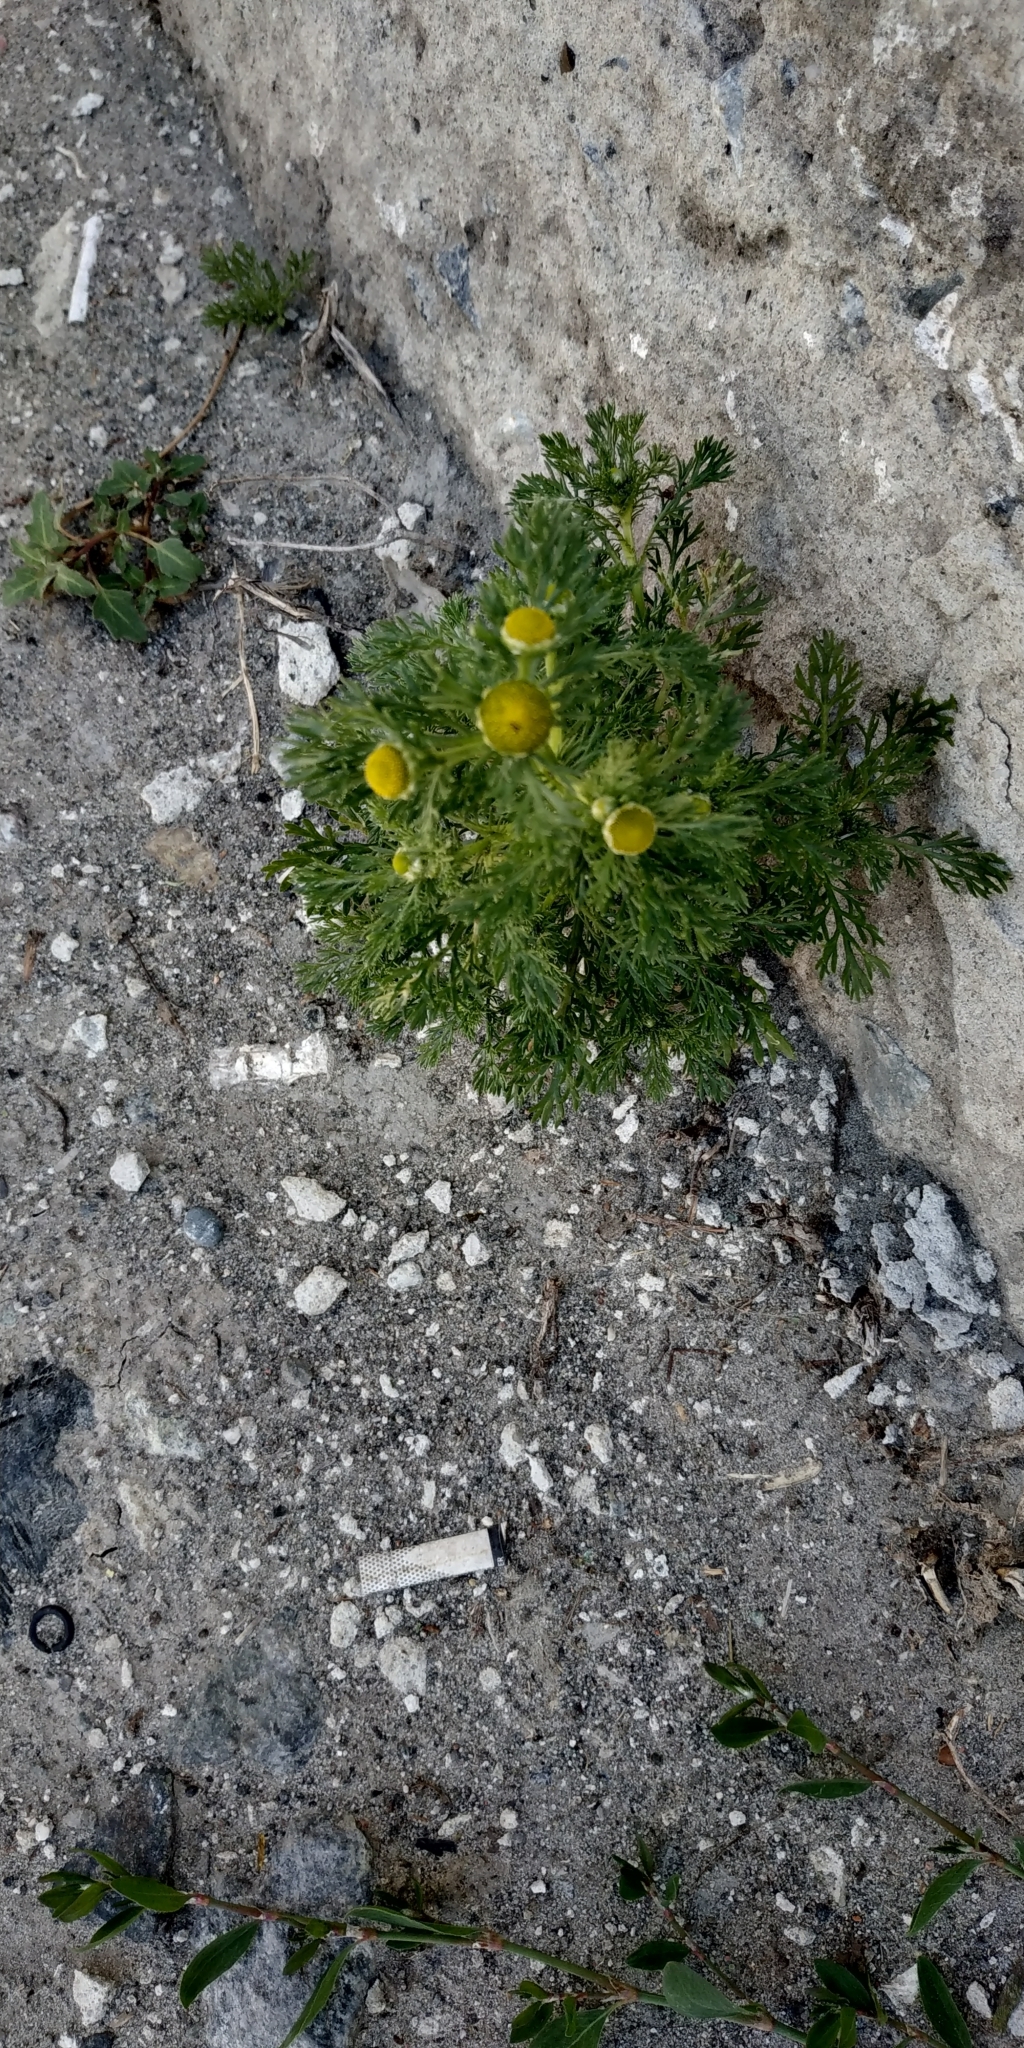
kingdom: Plantae
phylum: Tracheophyta
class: Magnoliopsida
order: Asterales
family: Asteraceae
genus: Matricaria
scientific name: Matricaria discoidea
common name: Disc mayweed
